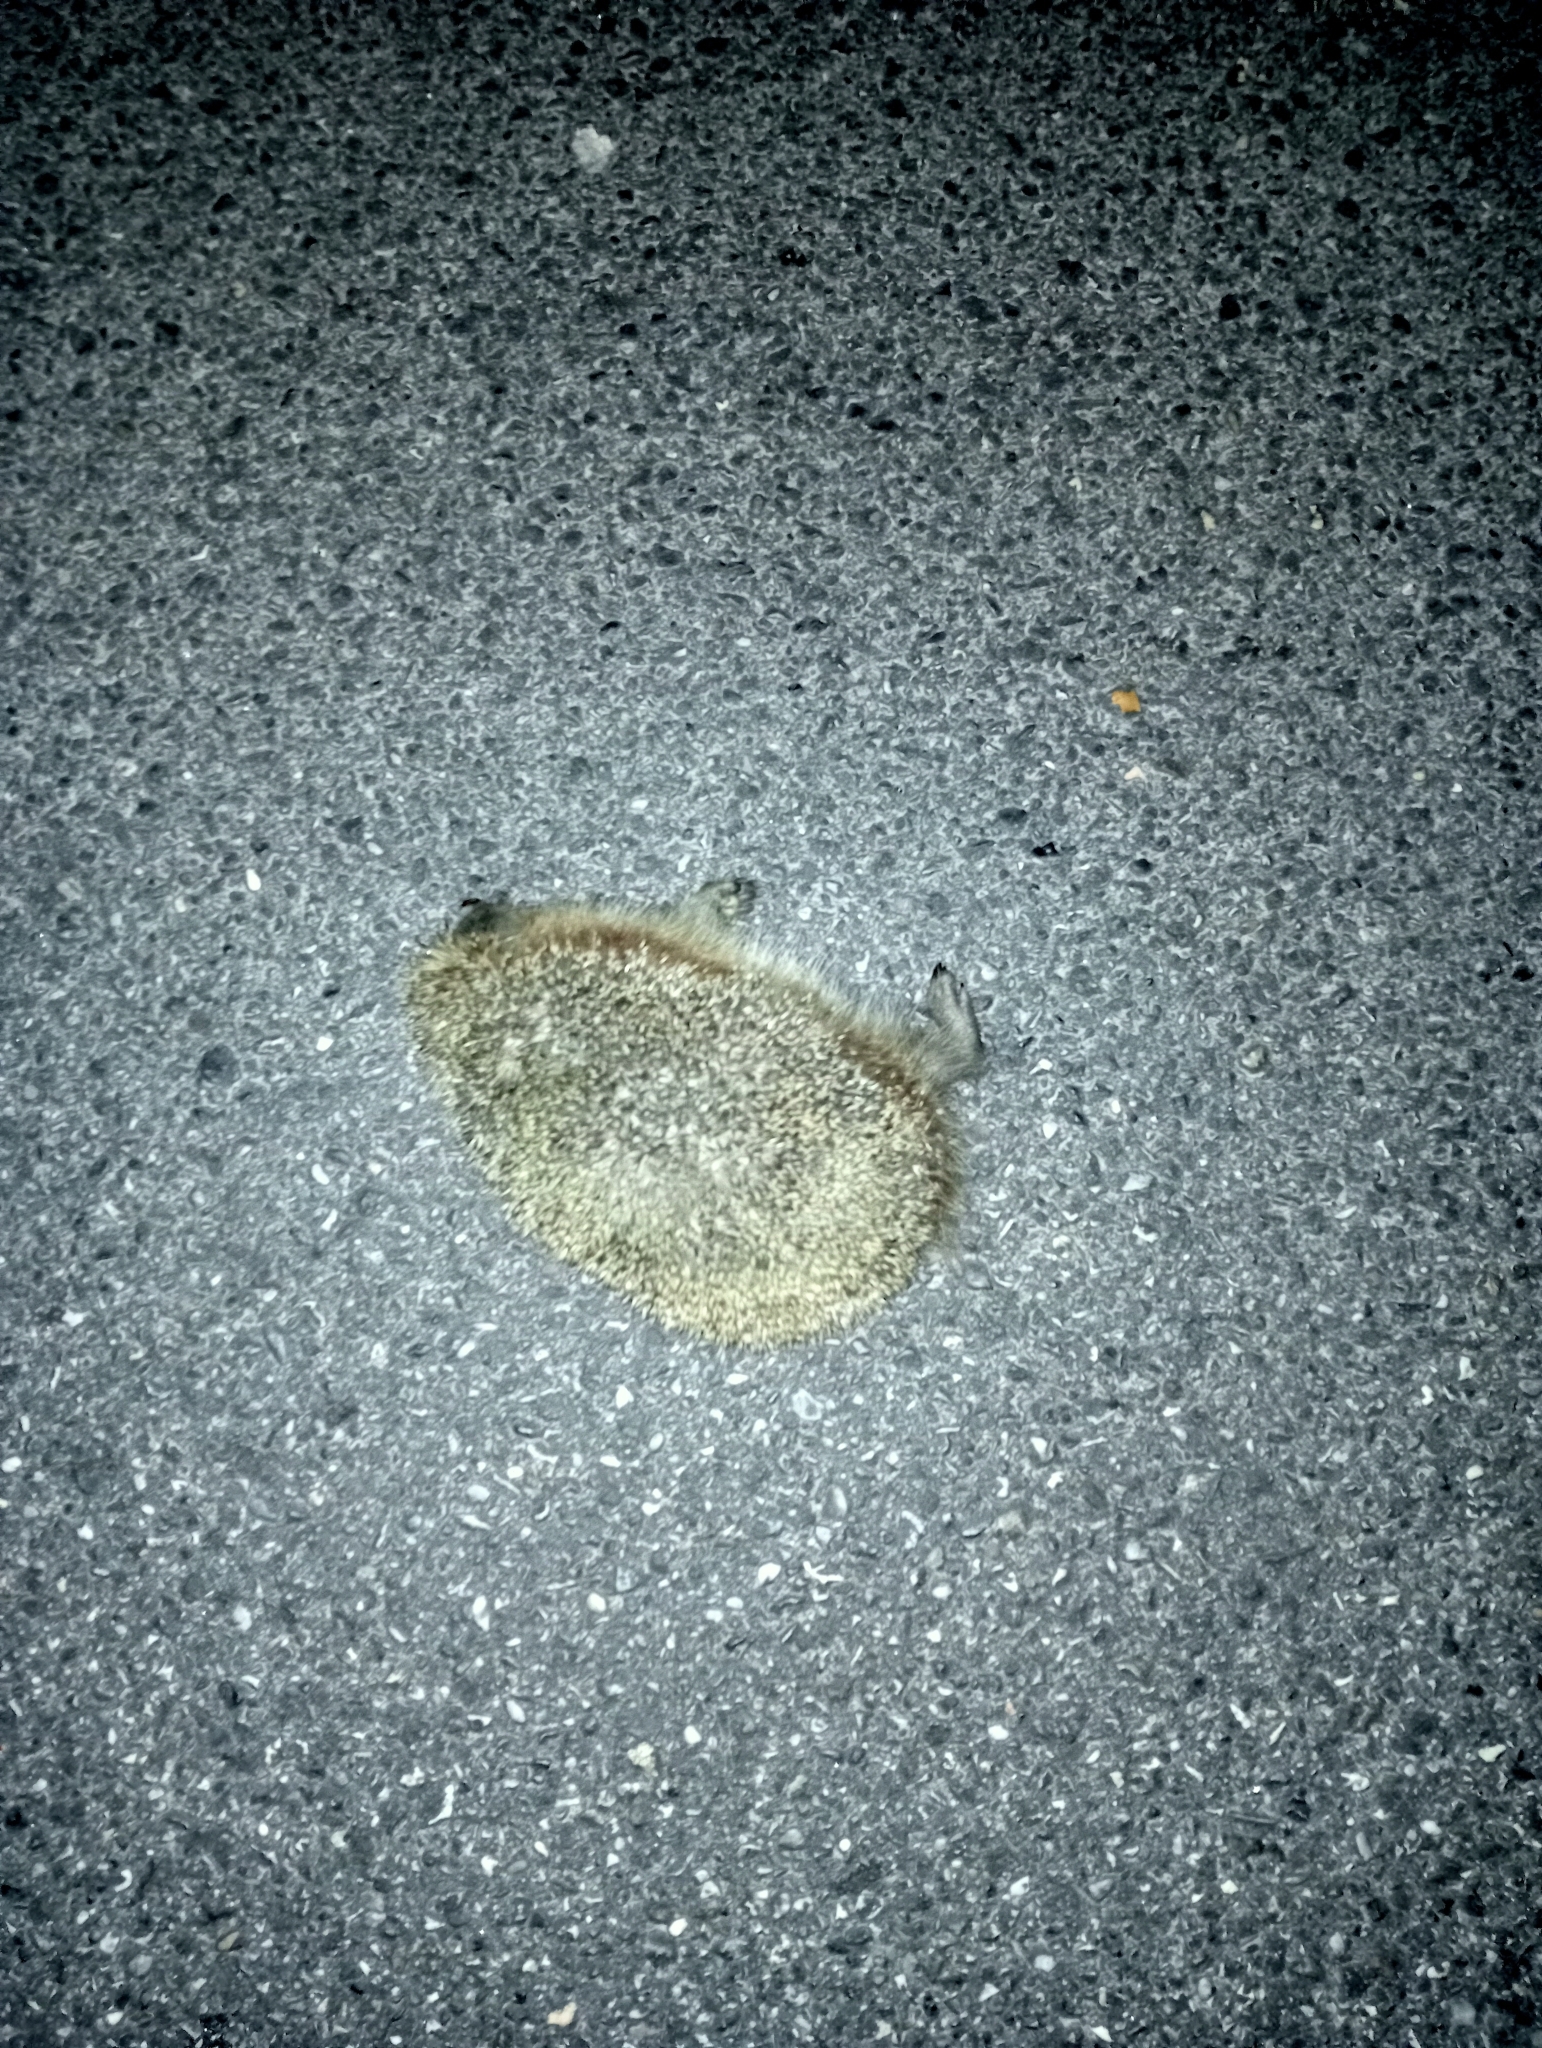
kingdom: Animalia
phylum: Chordata
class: Mammalia
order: Erinaceomorpha
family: Erinaceidae
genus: Erinaceus
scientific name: Erinaceus europaeus
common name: West european hedgehog
